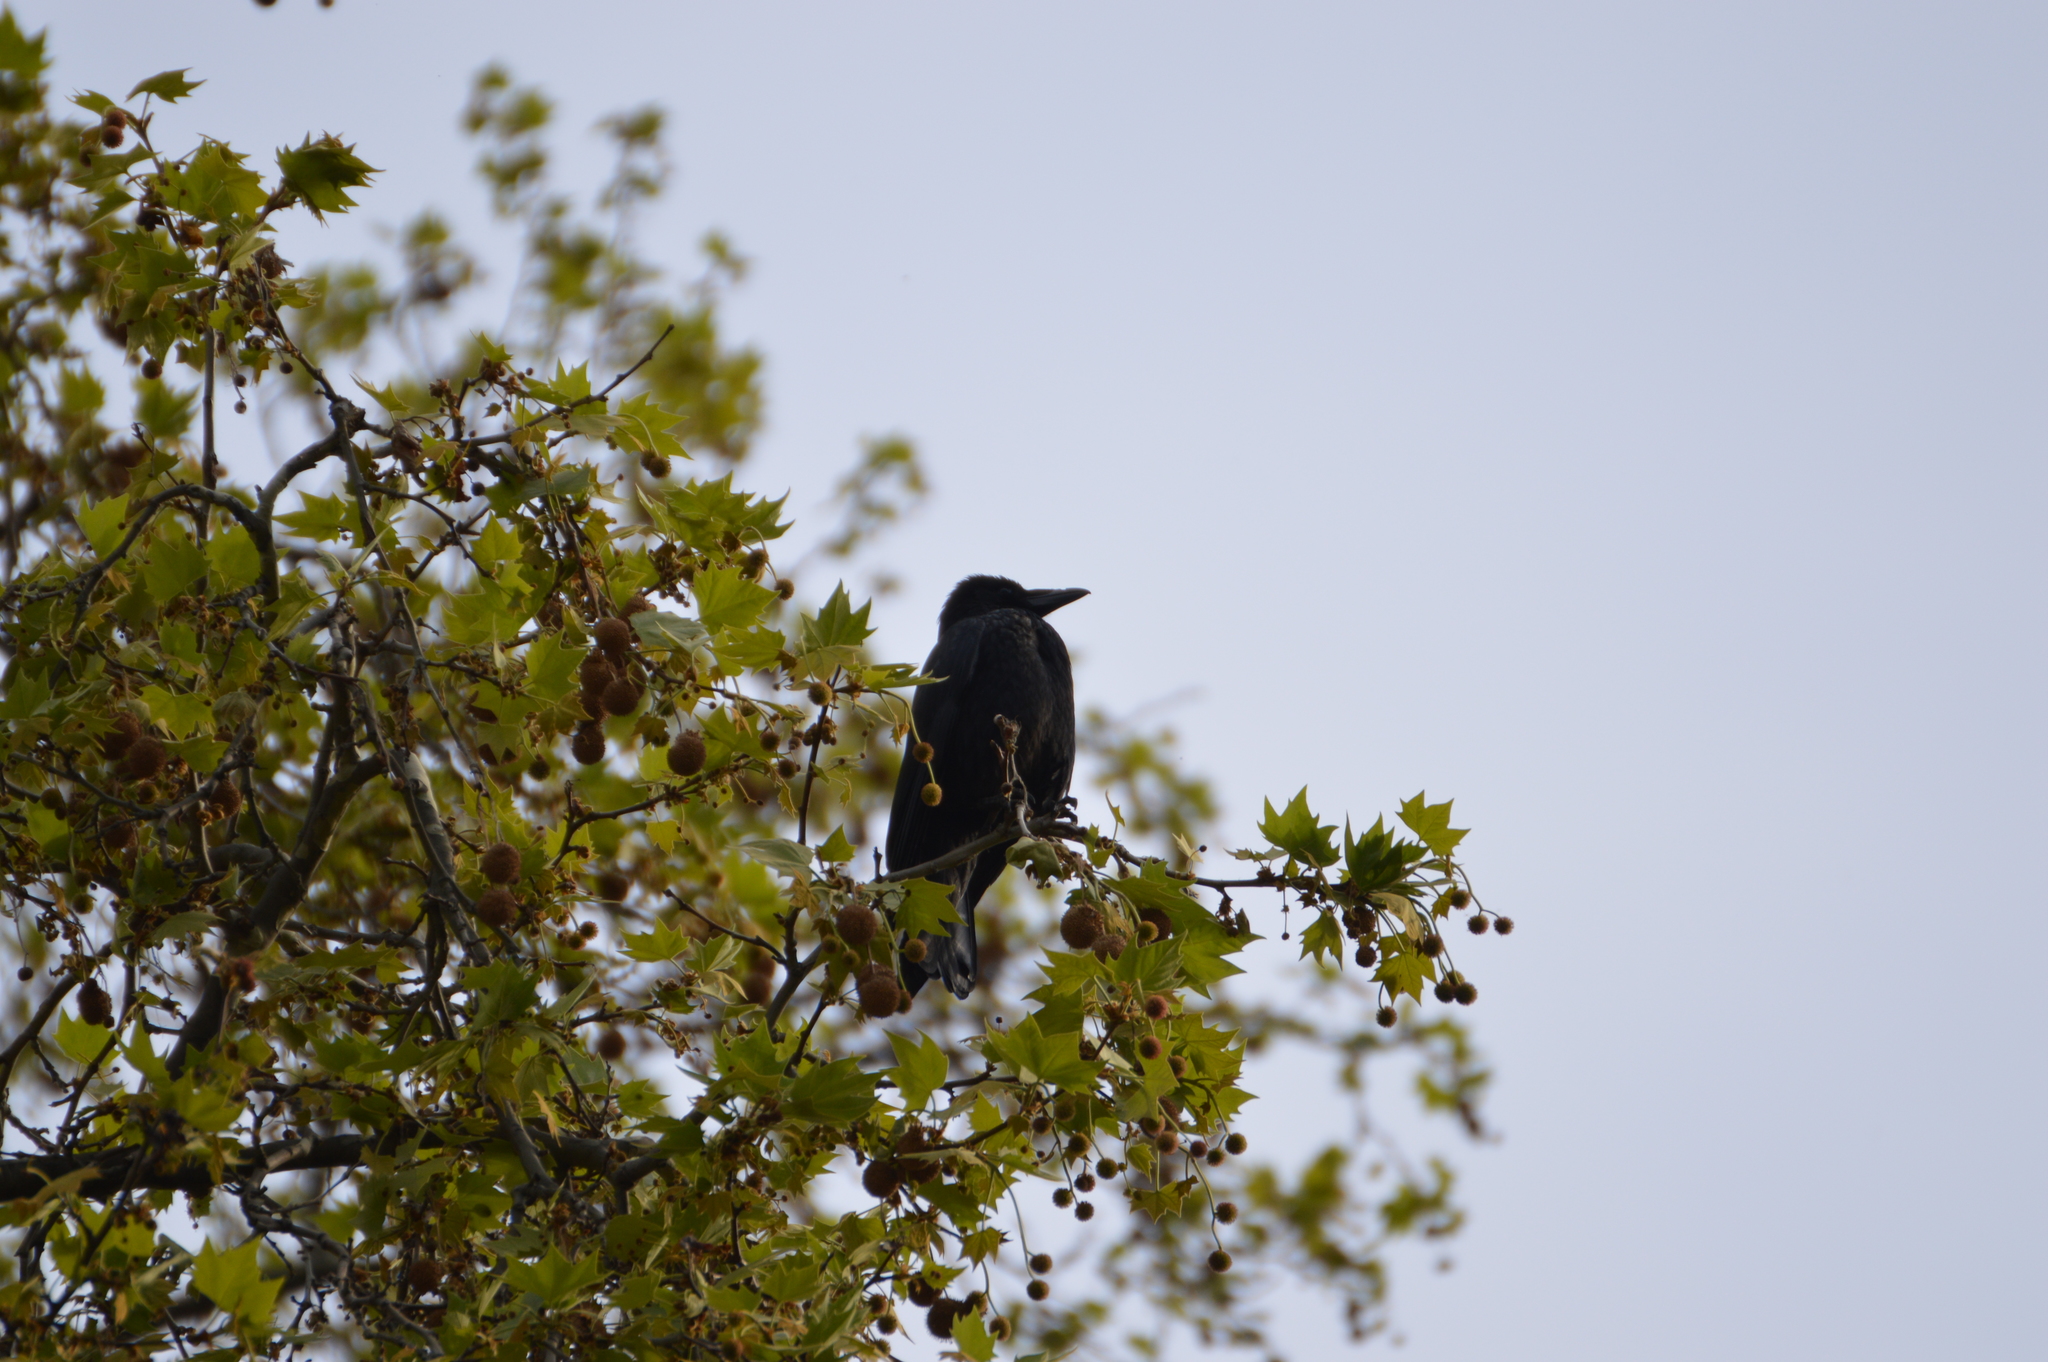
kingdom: Animalia
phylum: Chordata
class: Aves
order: Passeriformes
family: Corvidae
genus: Corvus
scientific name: Corvus
